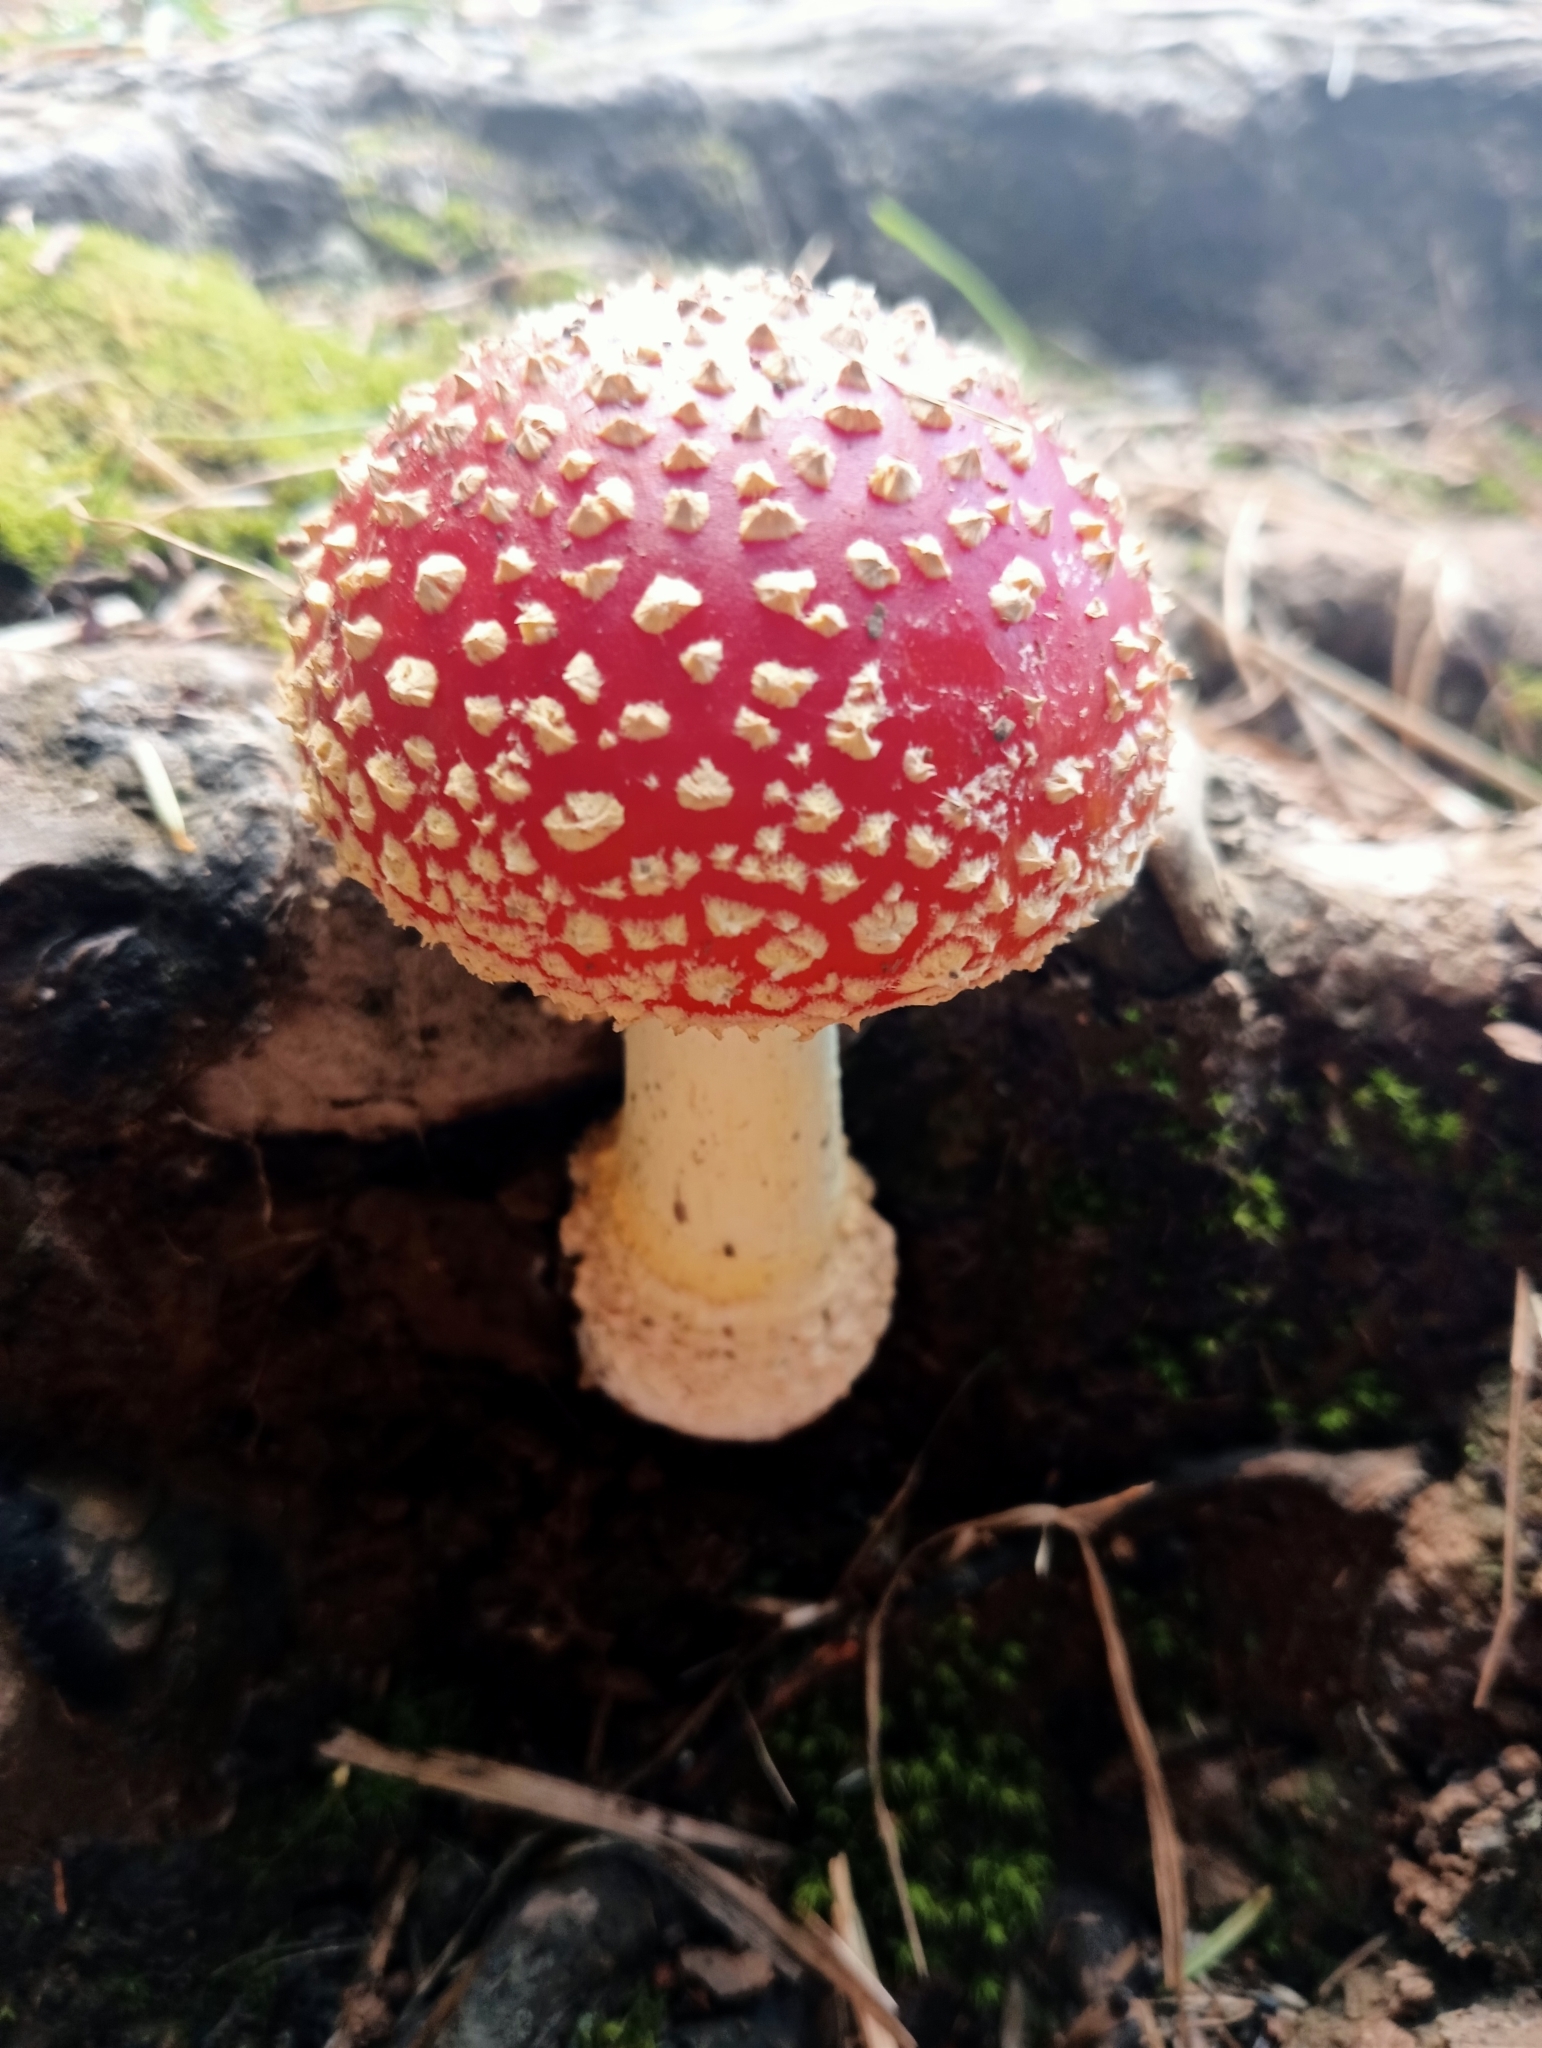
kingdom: Fungi
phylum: Basidiomycota
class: Agaricomycetes
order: Agaricales
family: Amanitaceae
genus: Amanita
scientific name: Amanita muscaria
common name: Fly agaric
